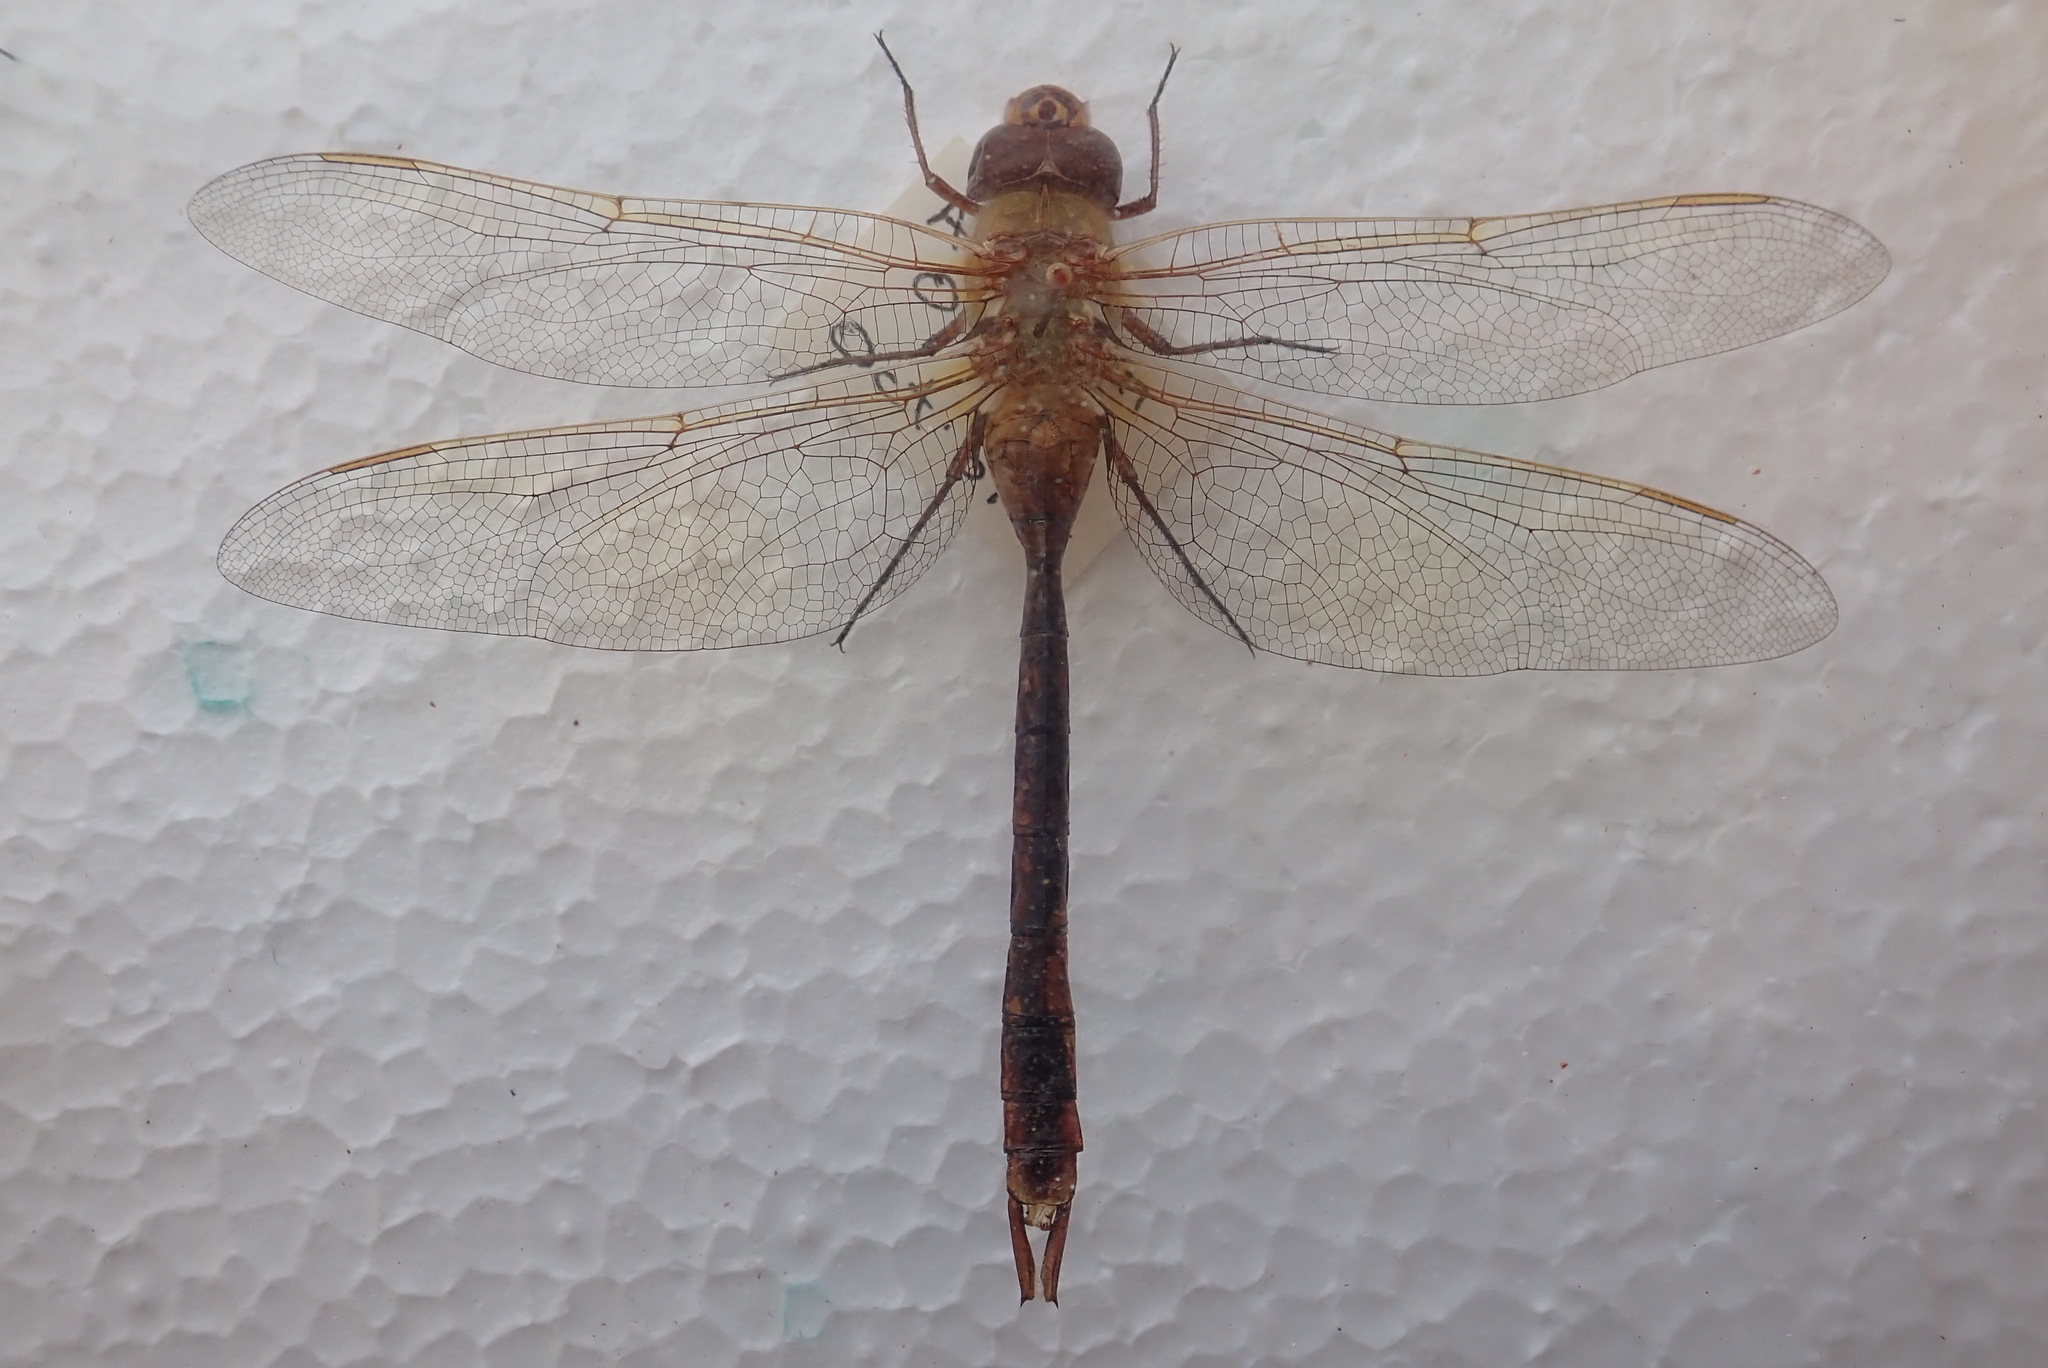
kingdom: Animalia
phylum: Arthropoda
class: Insecta
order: Odonata
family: Aeshnidae
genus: Anax
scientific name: Anax junius
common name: Common green darner
